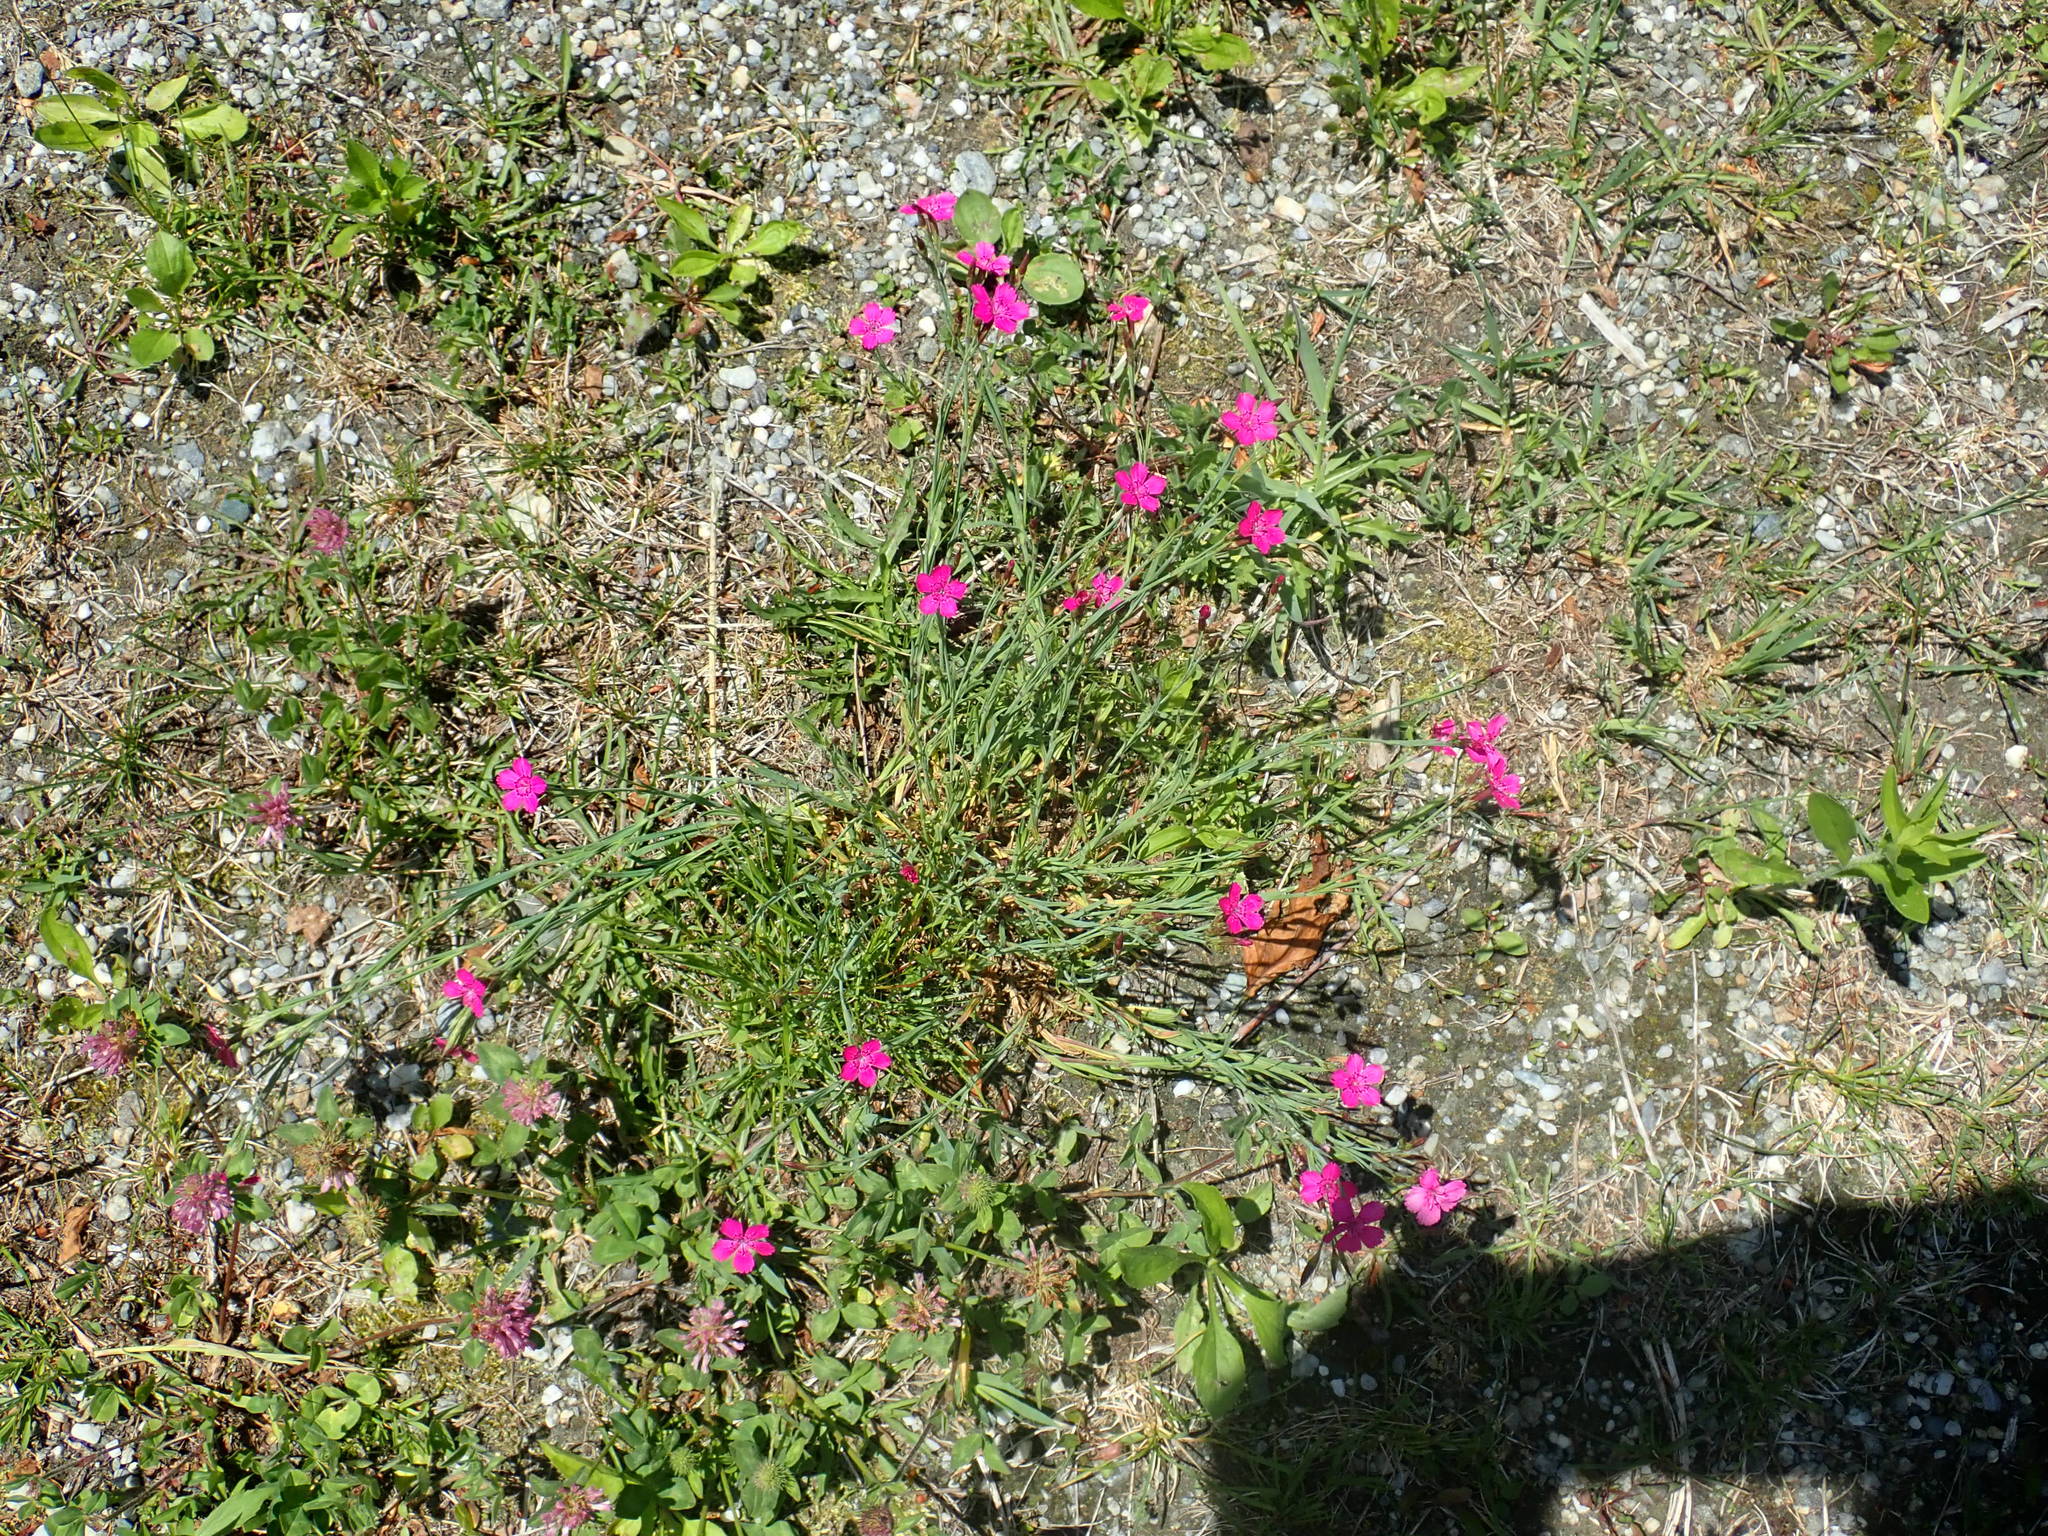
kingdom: Plantae
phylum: Tracheophyta
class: Magnoliopsida
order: Caryophyllales
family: Caryophyllaceae
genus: Dianthus
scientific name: Dianthus deltoides
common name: Maiden pink
